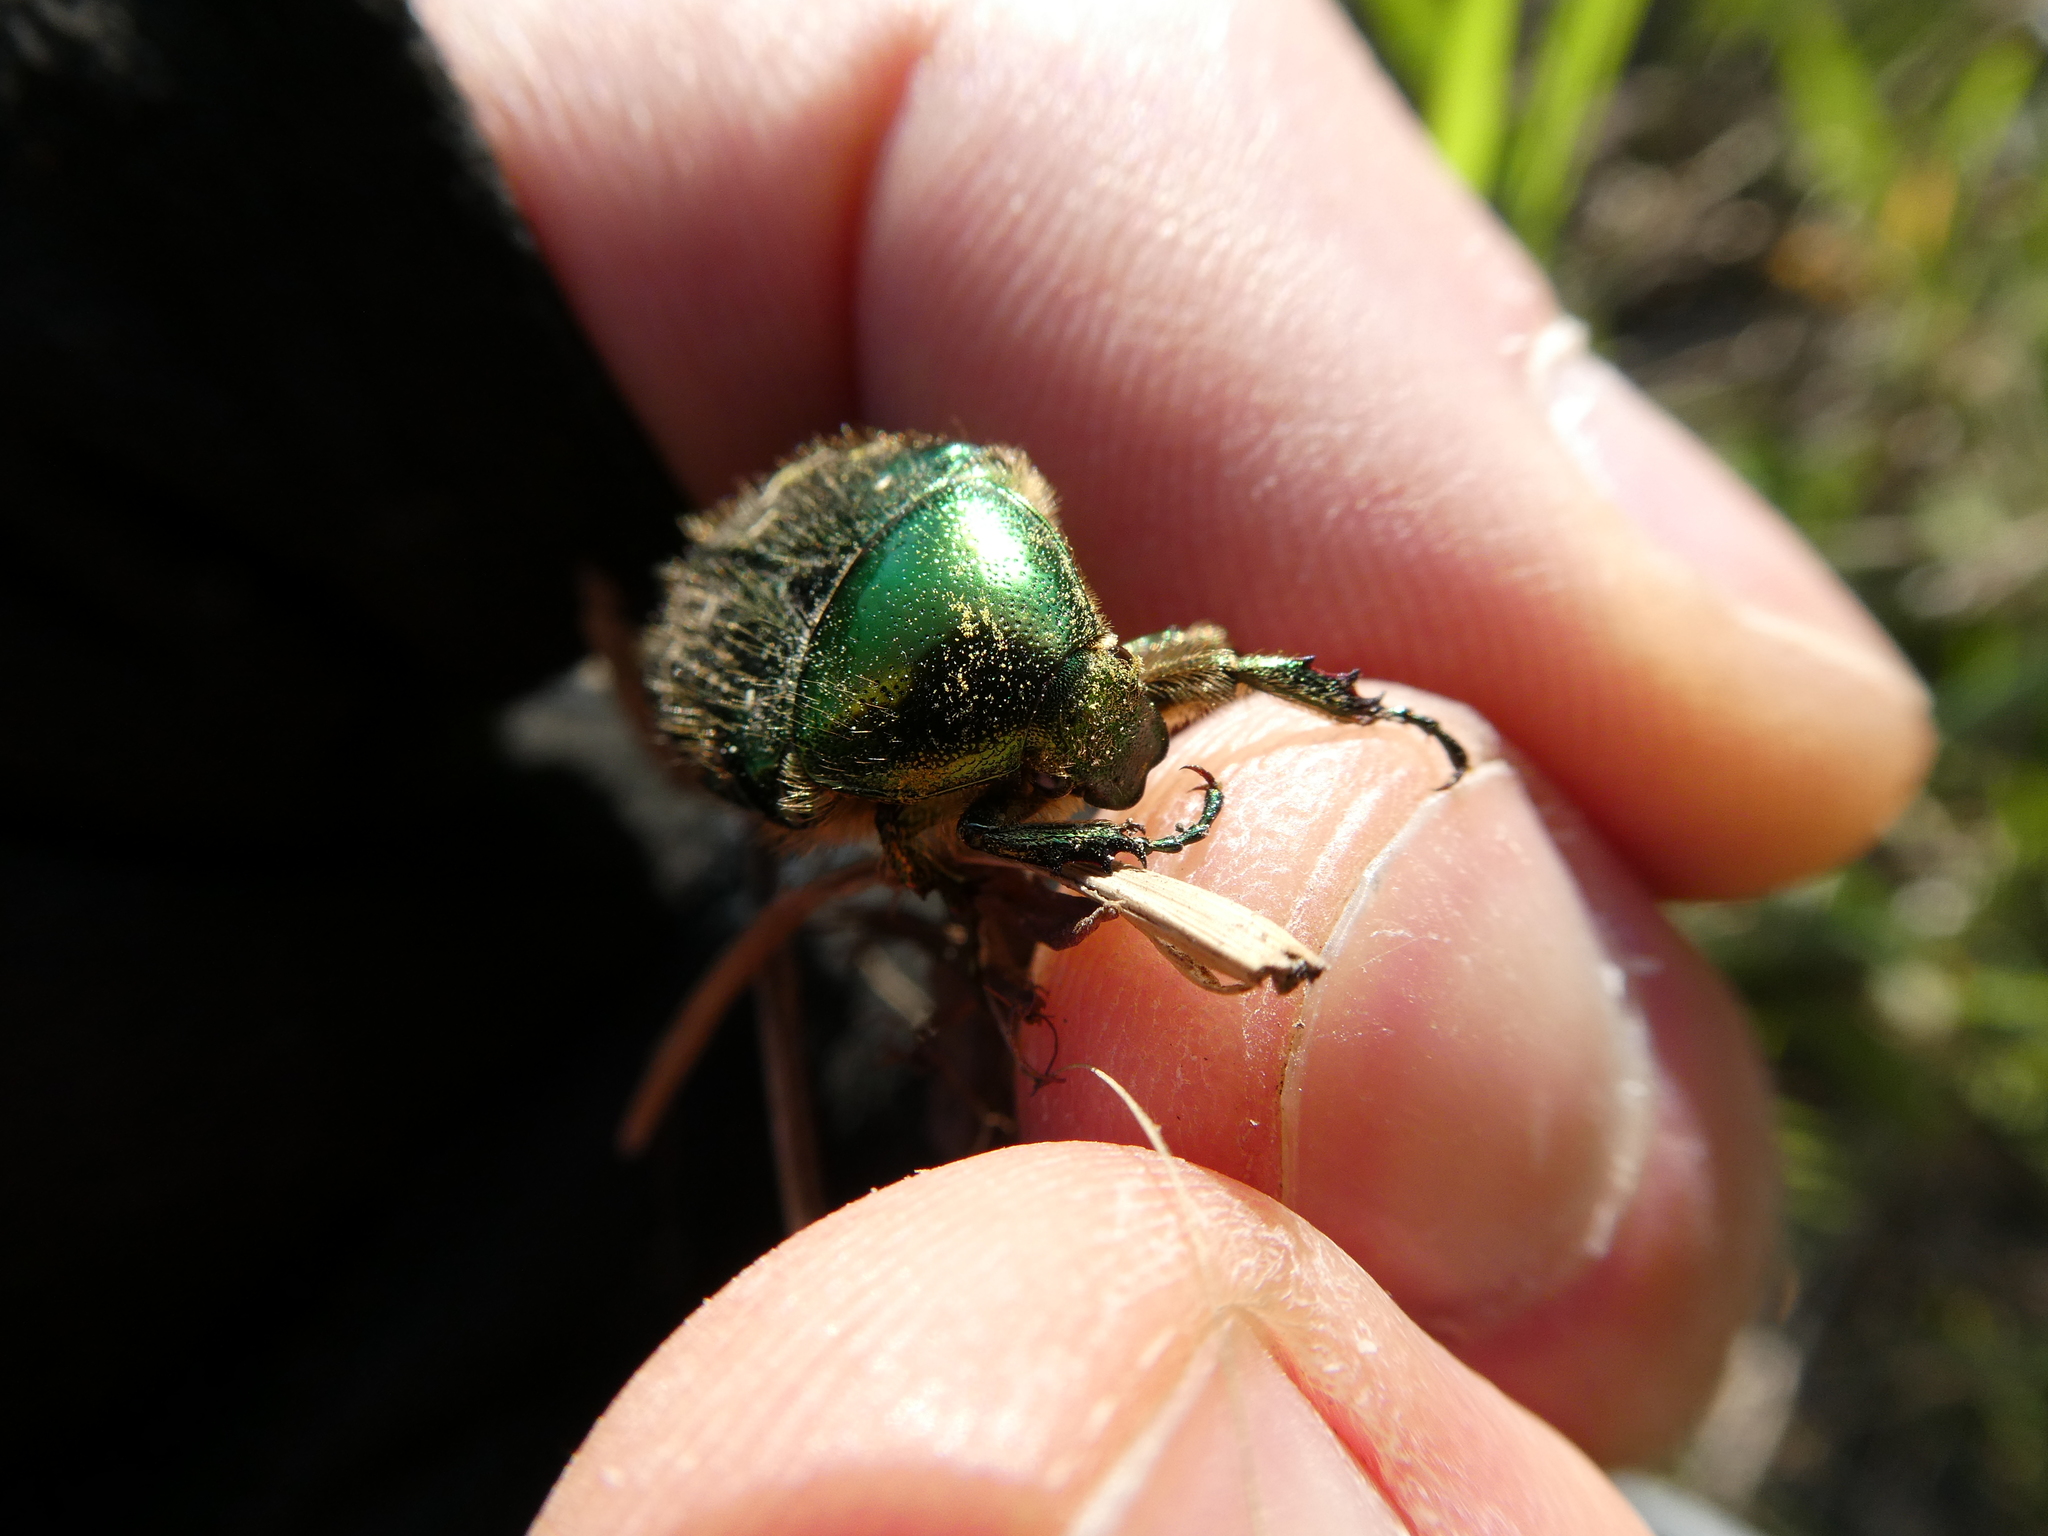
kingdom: Animalia
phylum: Arthropoda
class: Insecta
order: Coleoptera
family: Scarabaeidae
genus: Cetonia
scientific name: Cetonia aurata
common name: Rose chafer
